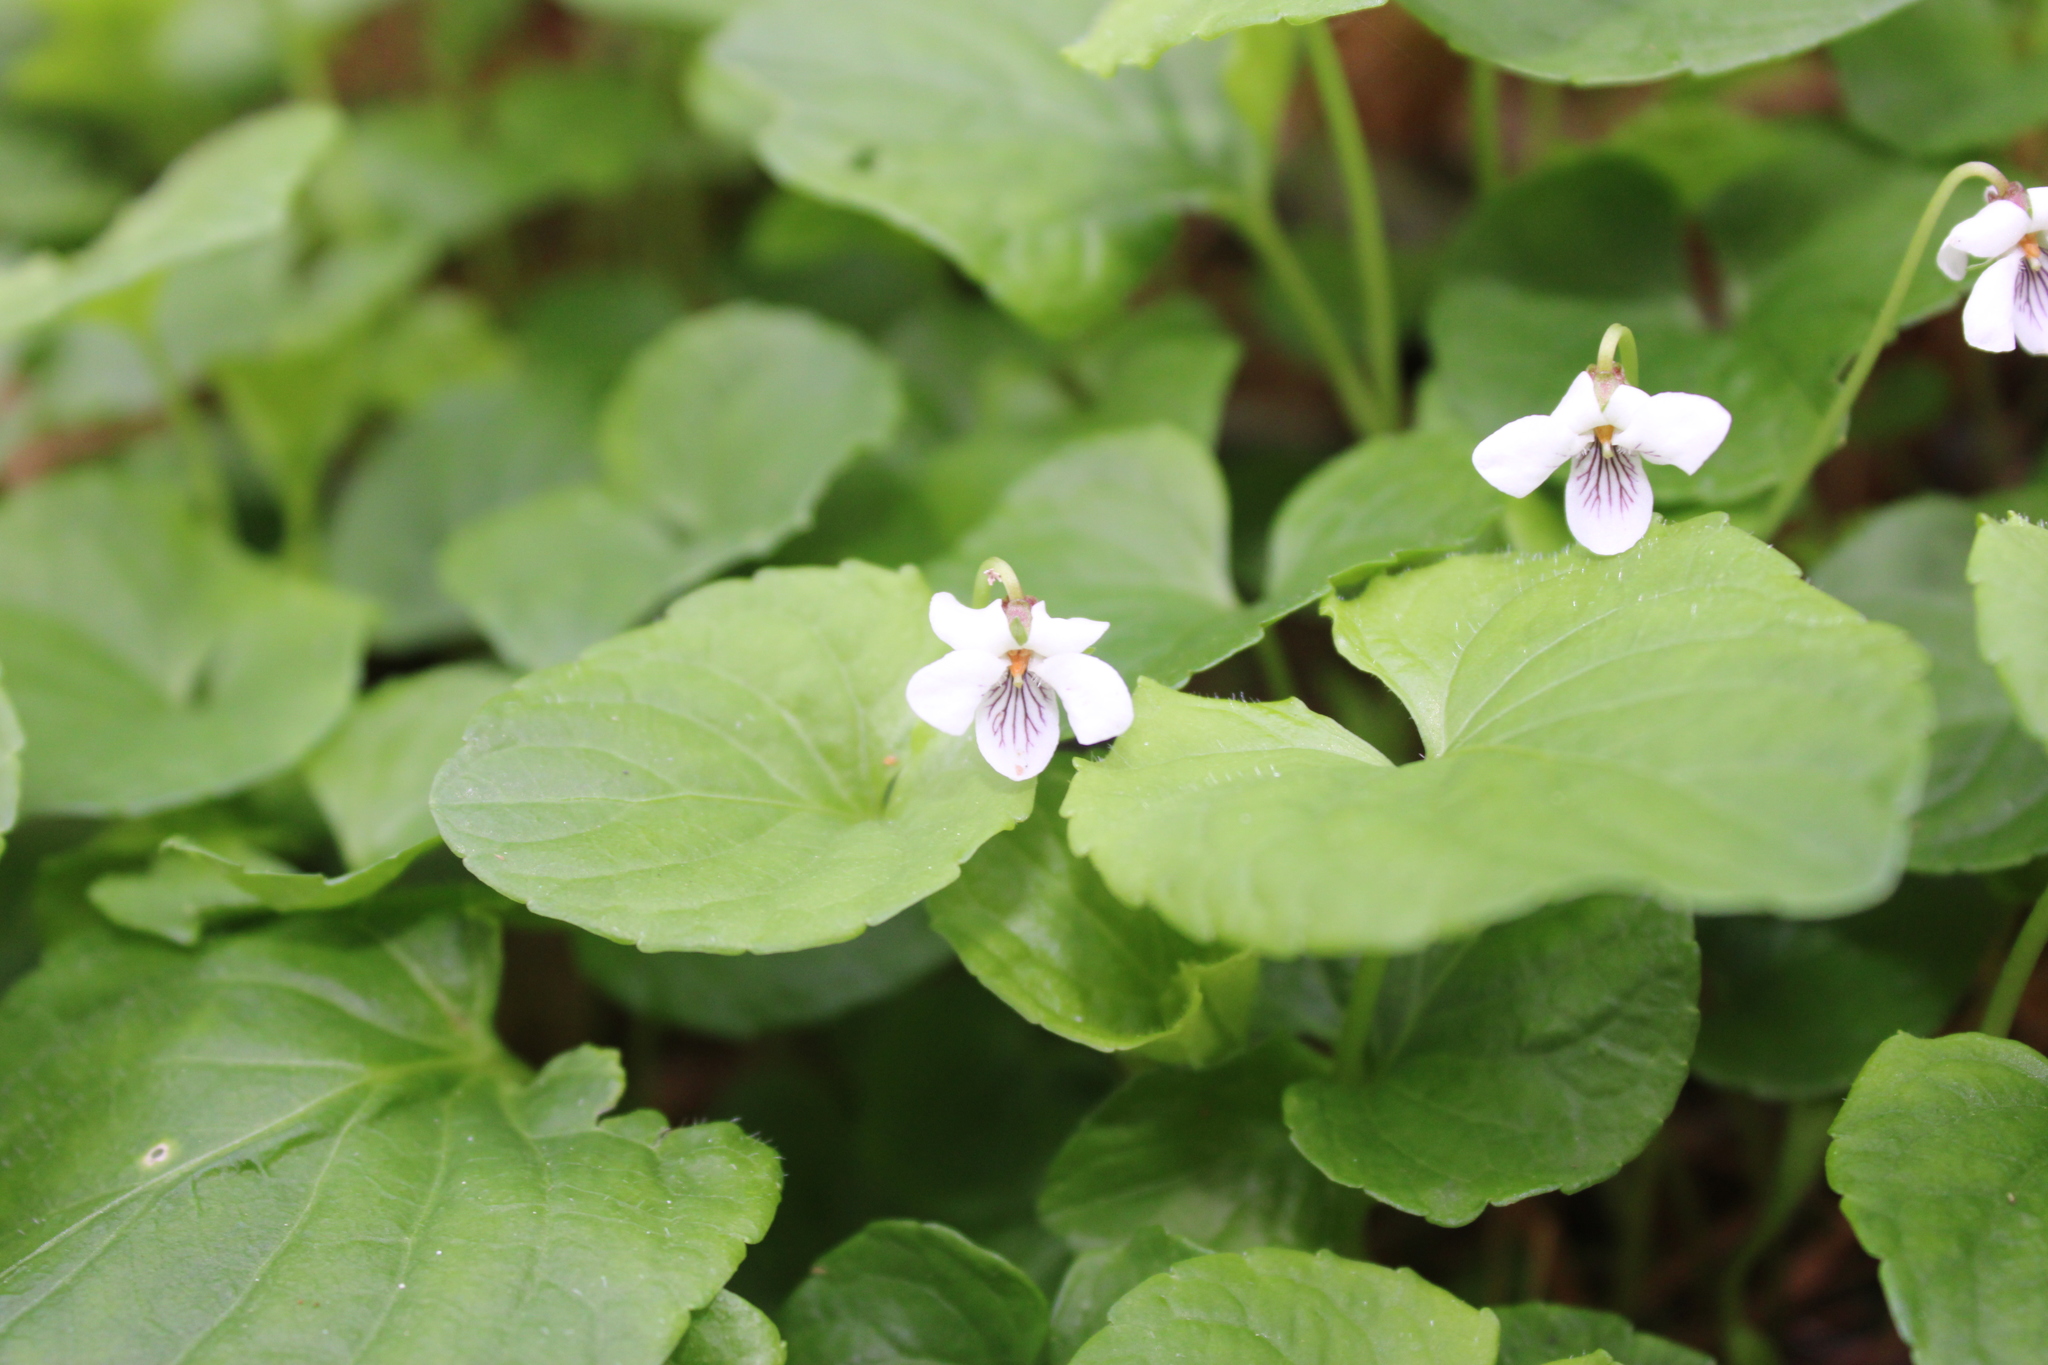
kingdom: Plantae
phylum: Tracheophyta
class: Magnoliopsida
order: Malpighiales
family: Violaceae
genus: Viola
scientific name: Viola sororia
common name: Dooryard violet
